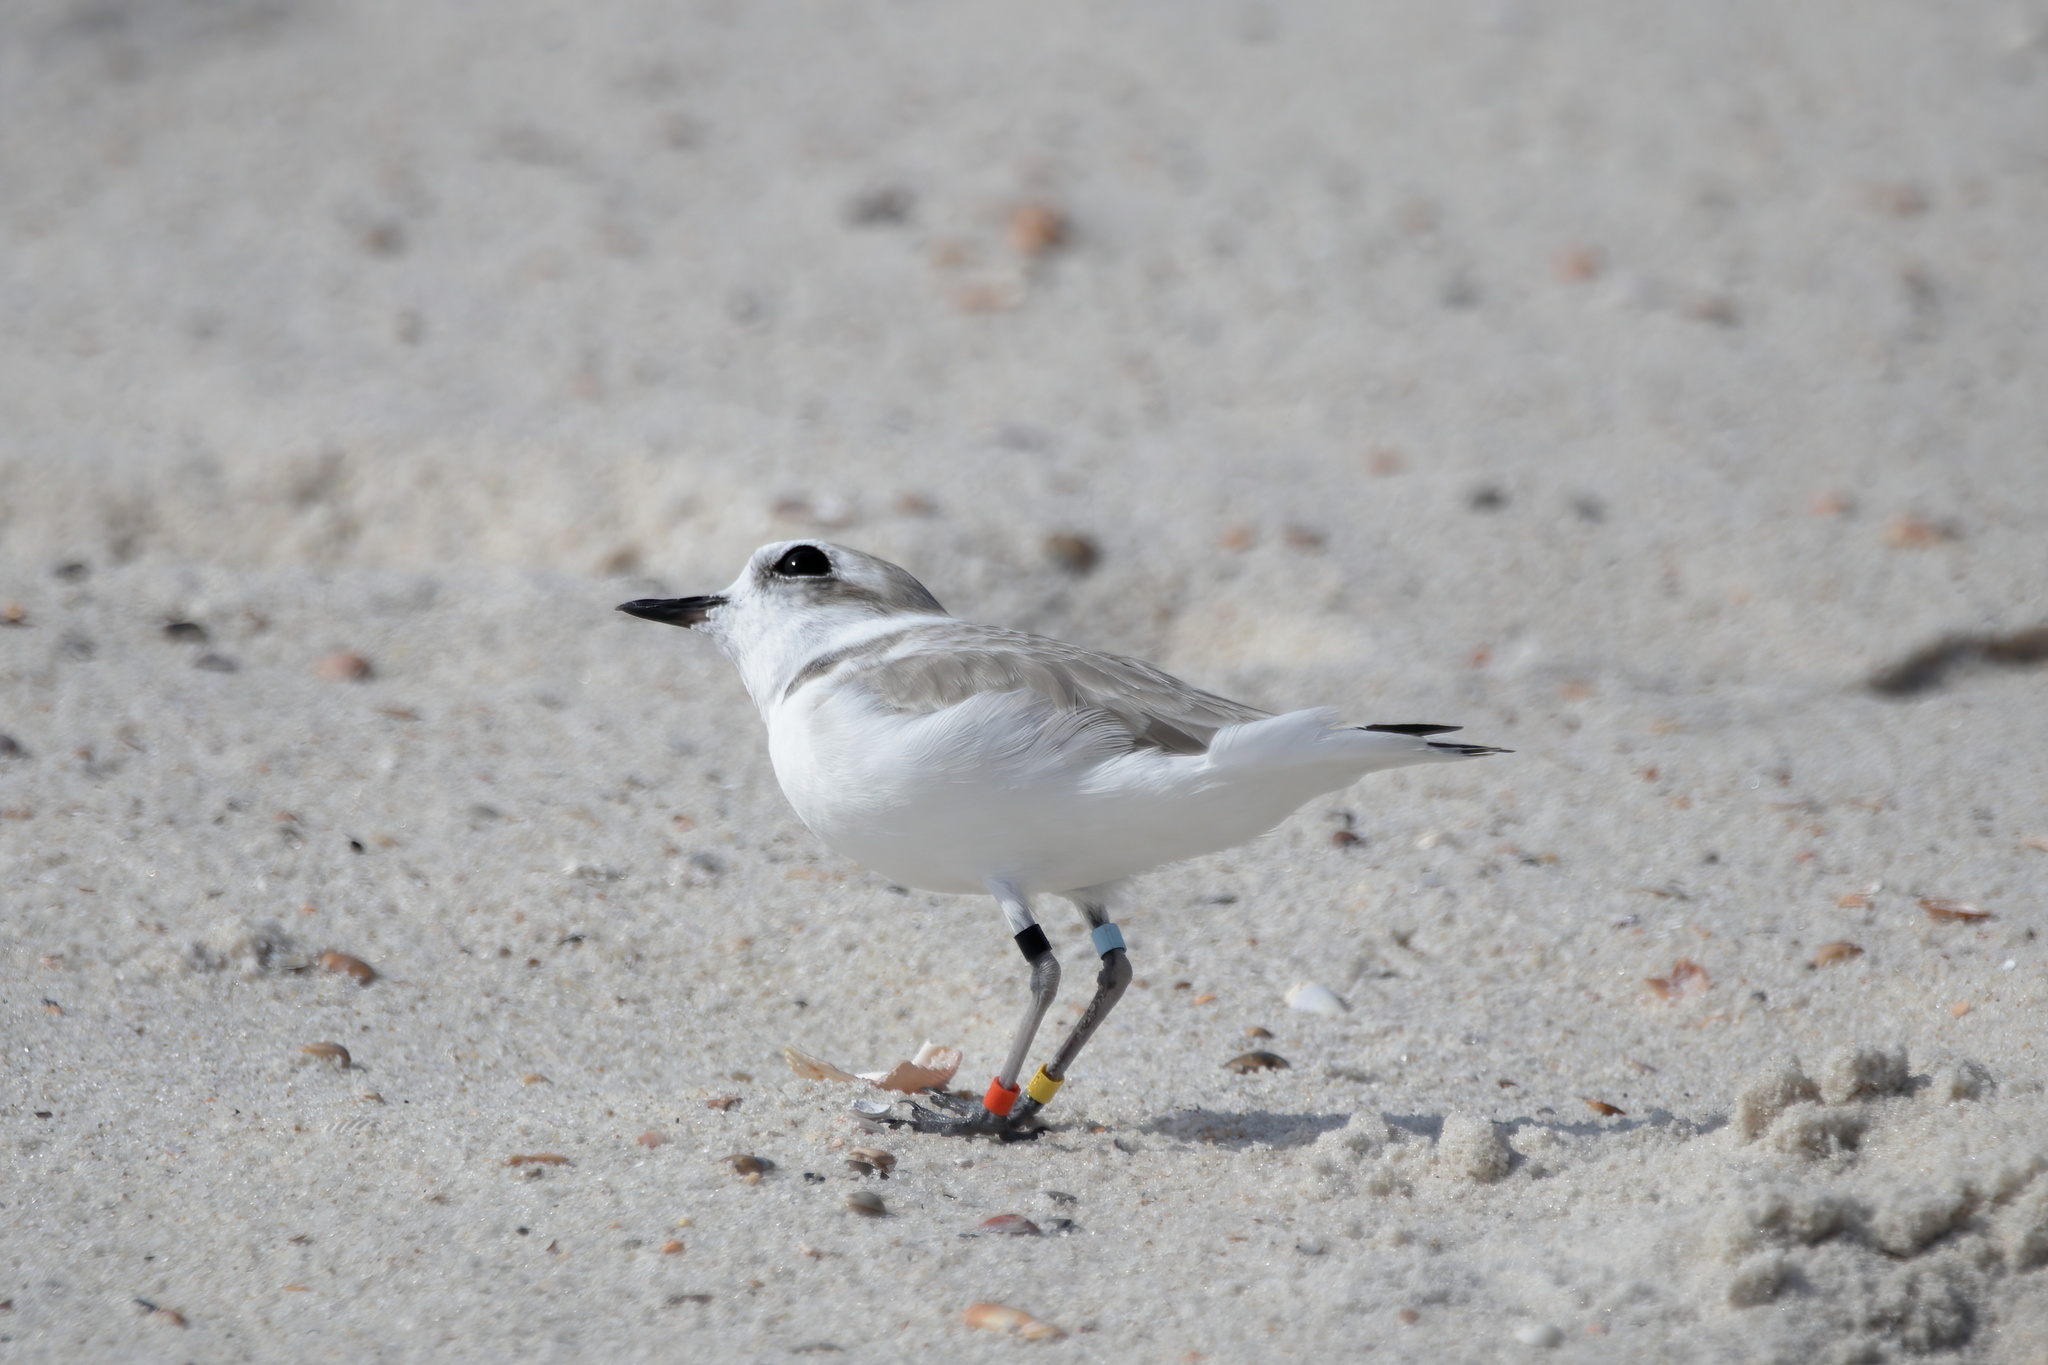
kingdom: Animalia
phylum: Chordata
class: Aves
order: Charadriiformes
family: Charadriidae
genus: Anarhynchus
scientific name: Anarhynchus
